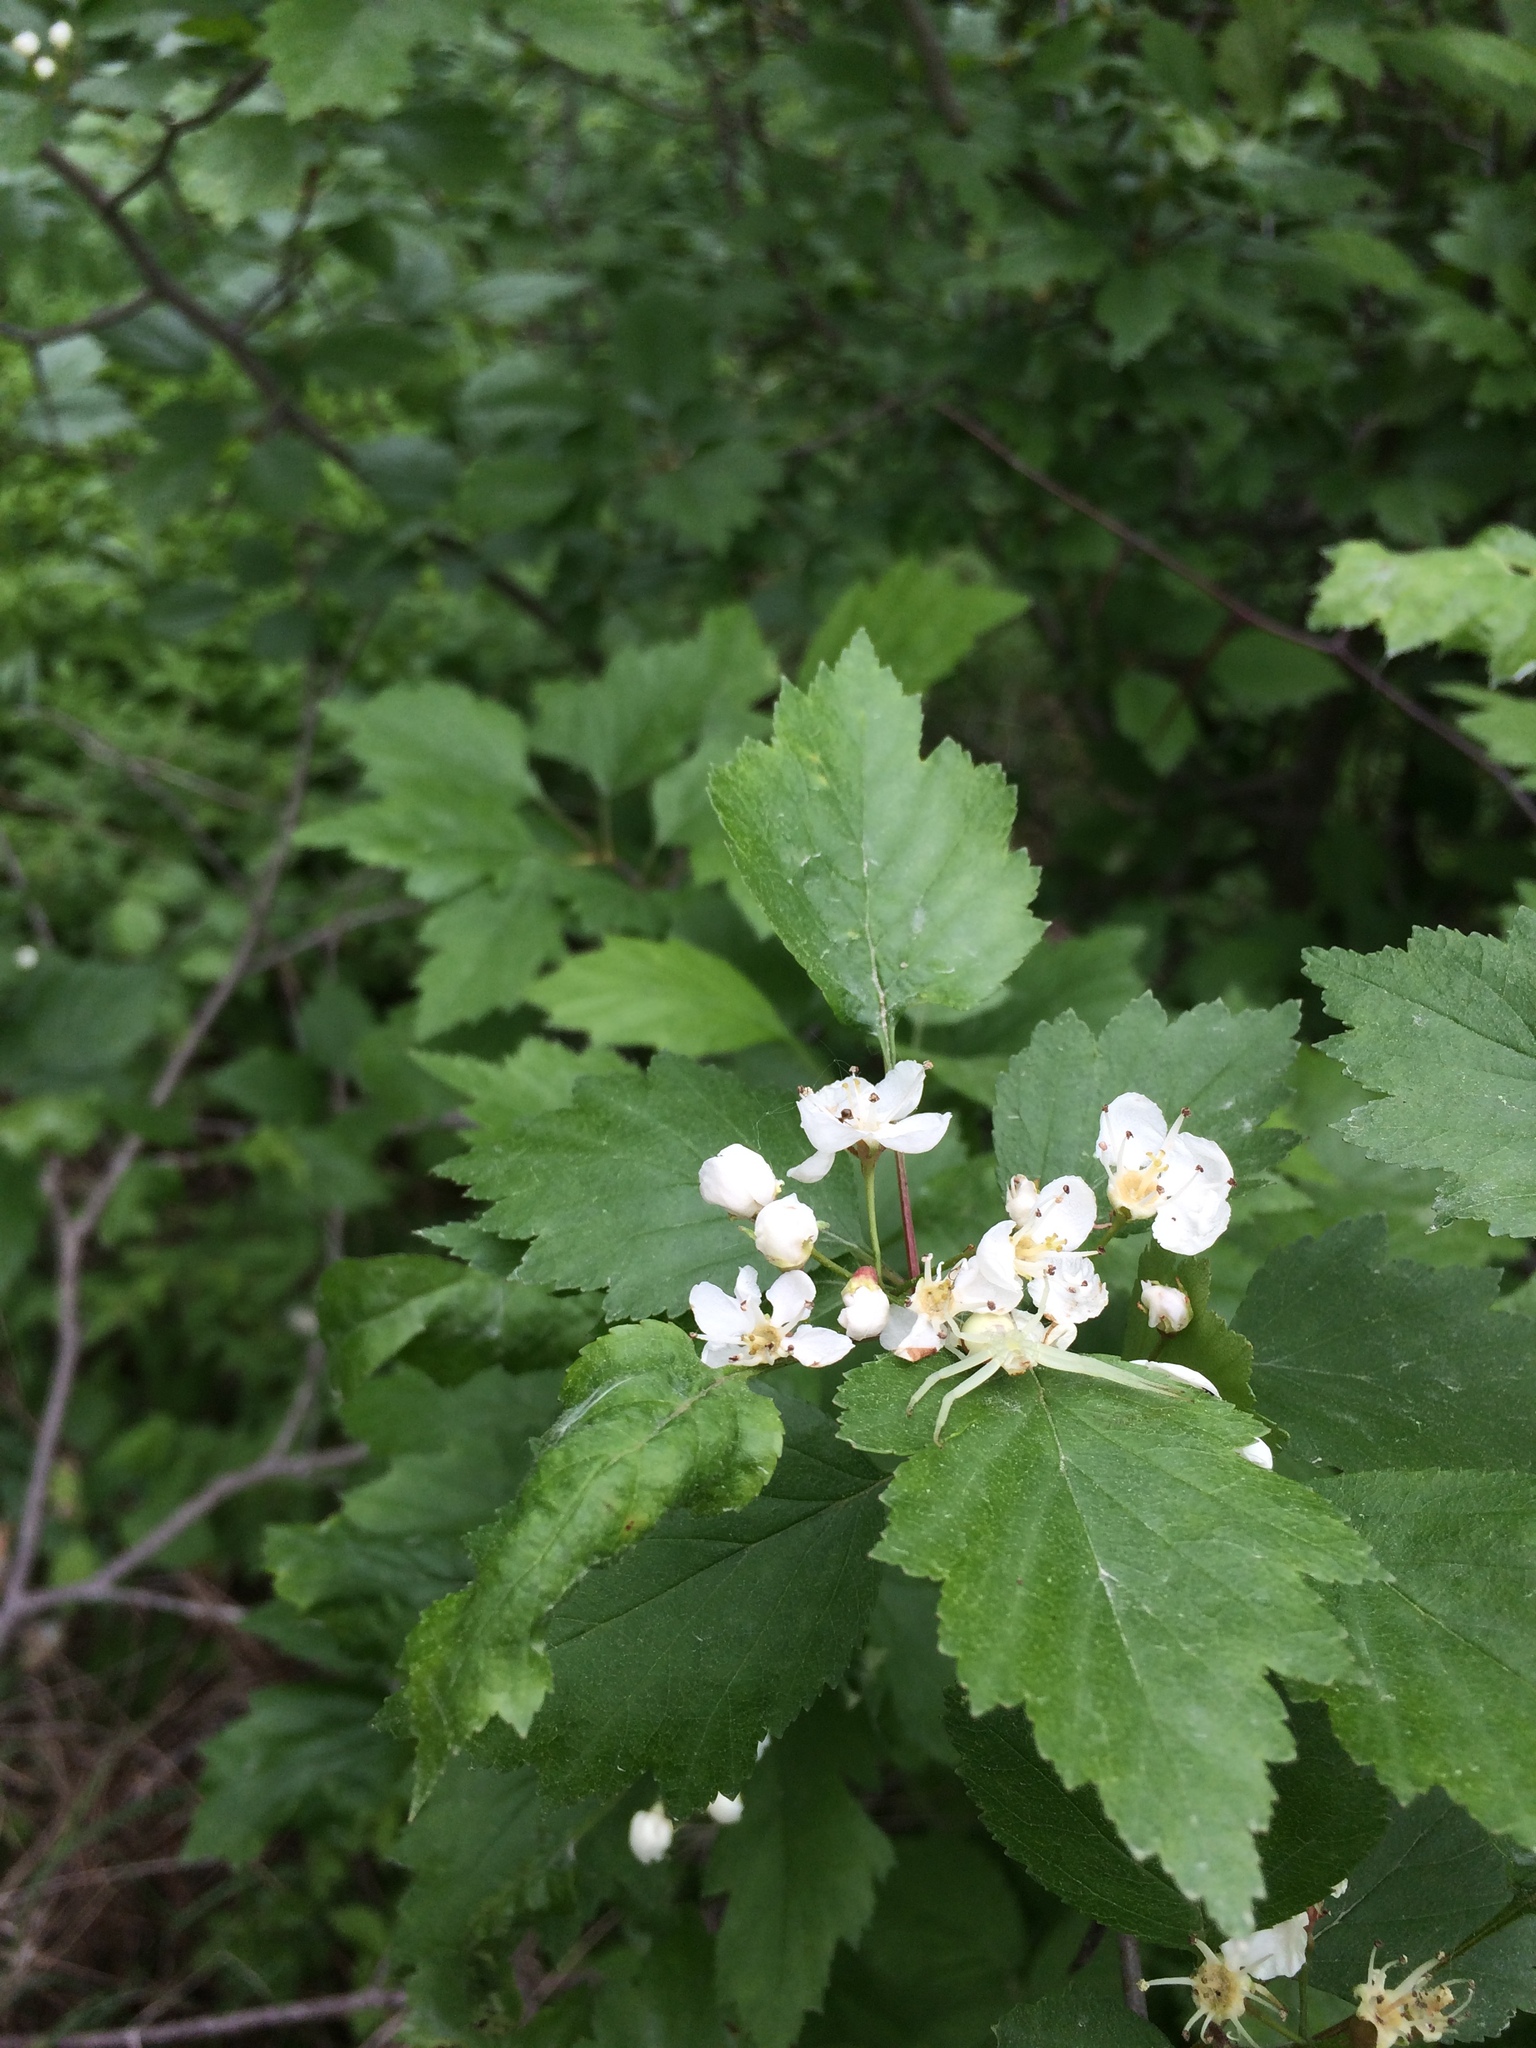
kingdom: Animalia
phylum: Arthropoda
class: Arachnida
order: Araneae
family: Thomisidae
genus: Misumena
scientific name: Misumena vatia
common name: Goldenrod crab spider
